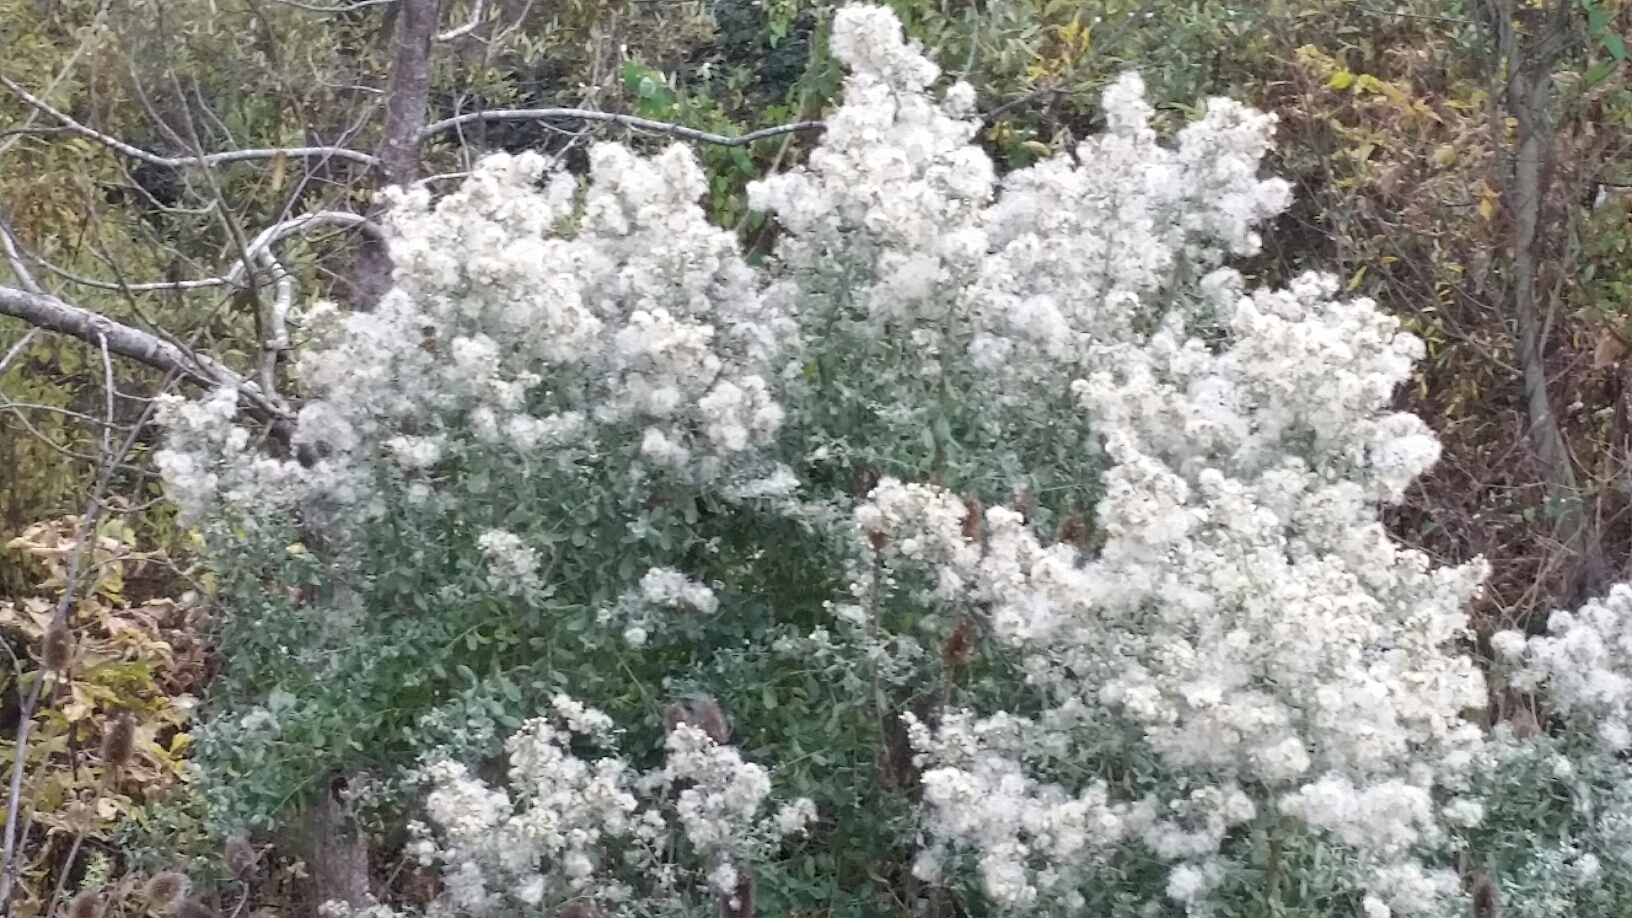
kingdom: Plantae
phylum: Tracheophyta
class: Magnoliopsida
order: Asterales
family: Asteraceae
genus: Baccharis
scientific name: Baccharis pilularis
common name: Coyotebrush
